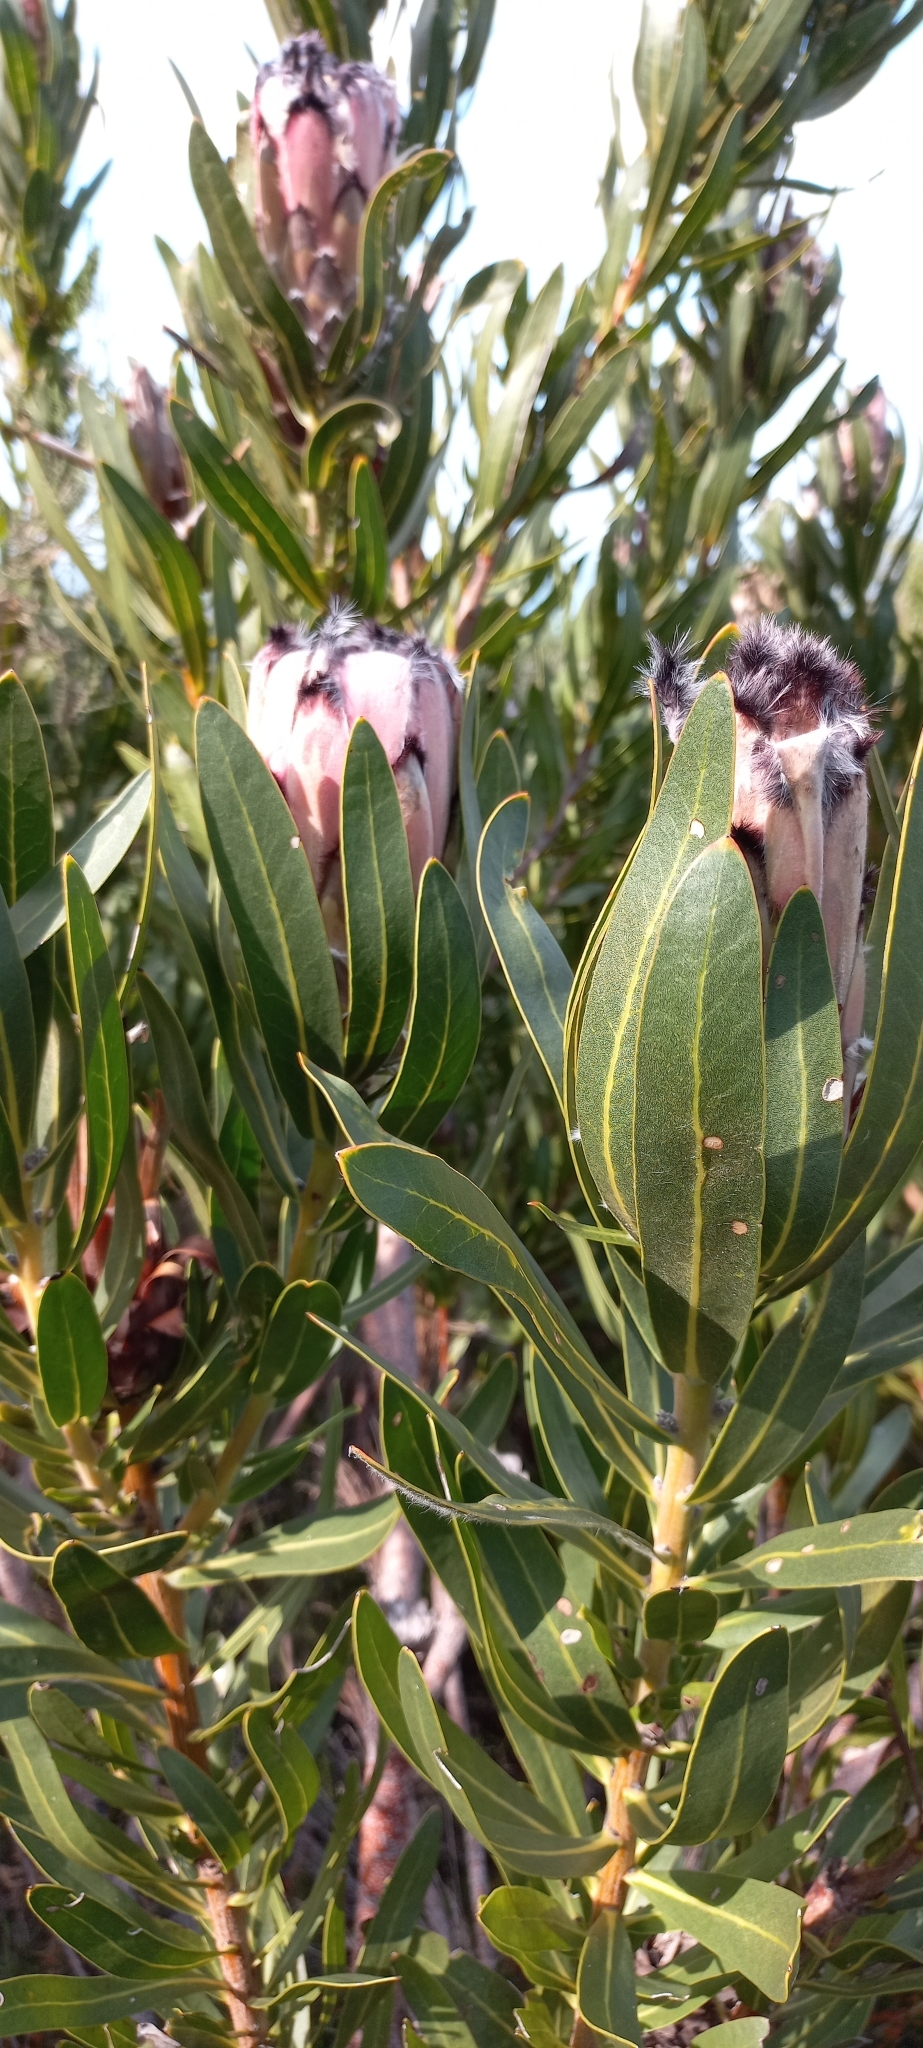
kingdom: Plantae
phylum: Tracheophyta
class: Magnoliopsida
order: Proteales
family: Proteaceae
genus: Protea
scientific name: Protea
